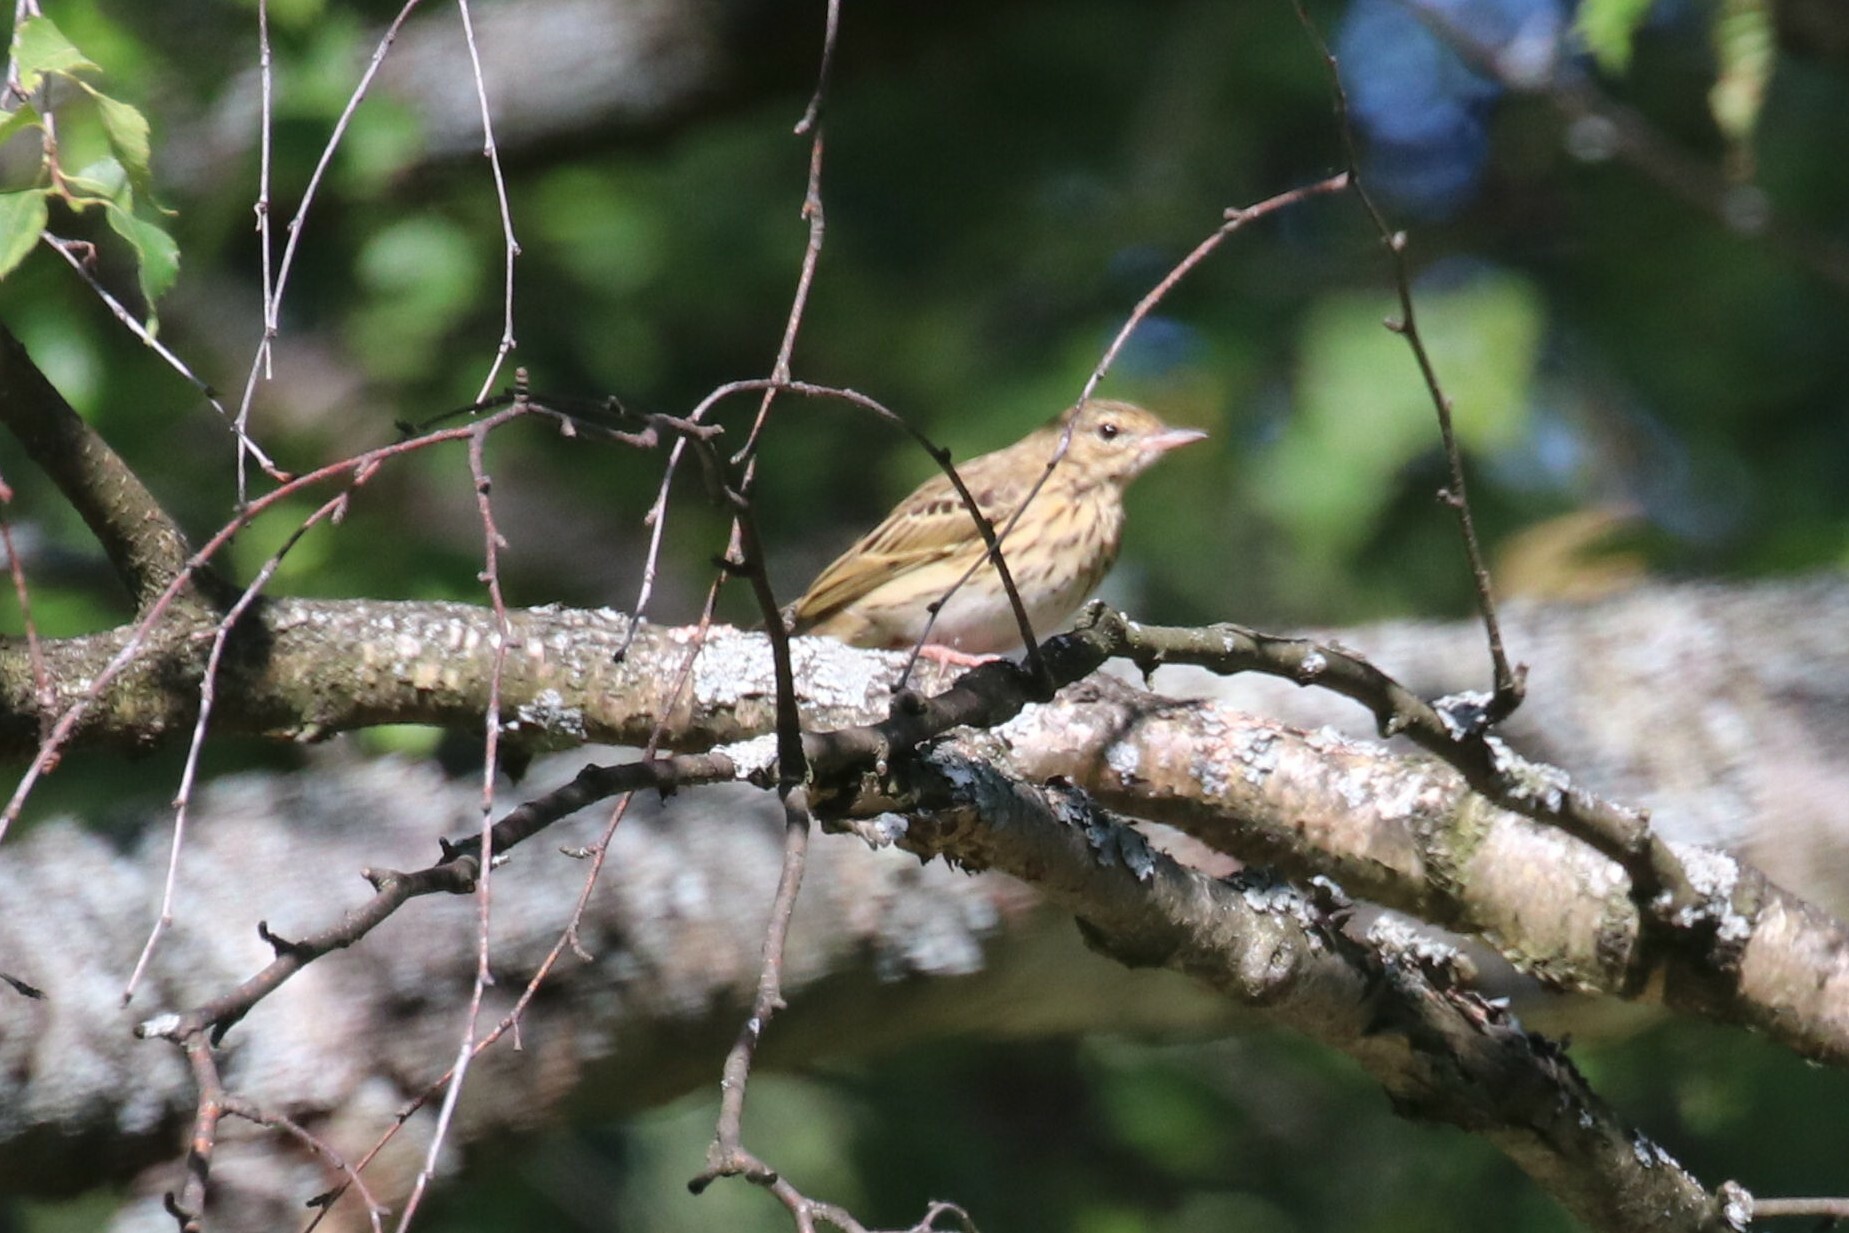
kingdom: Animalia
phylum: Chordata
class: Aves
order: Passeriformes
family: Motacillidae
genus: Anthus
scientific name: Anthus trivialis
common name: Tree pipit
